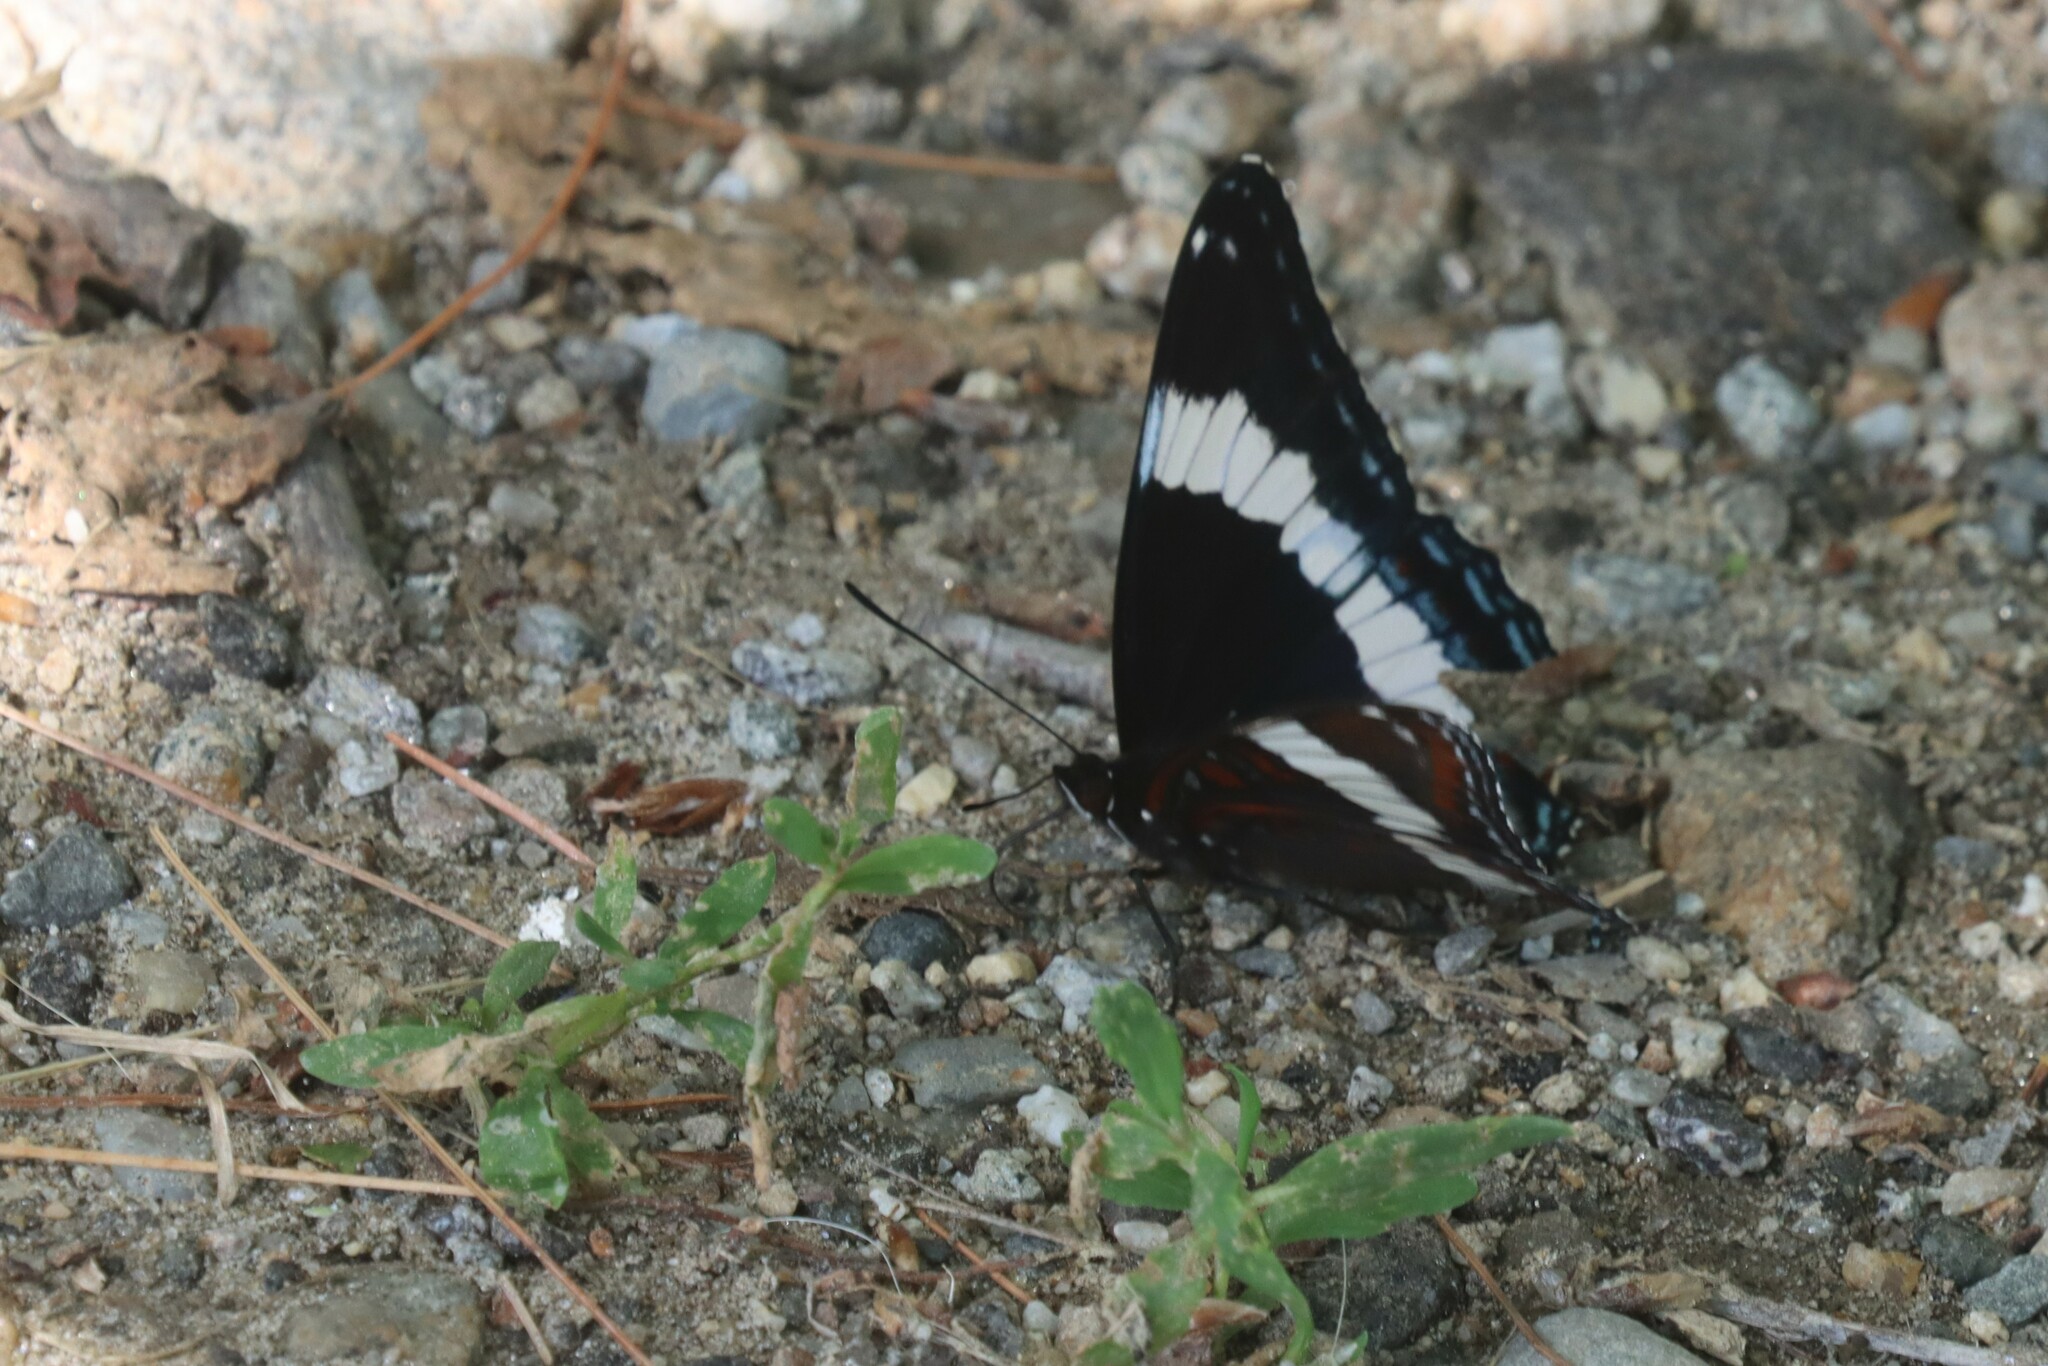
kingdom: Animalia
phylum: Arthropoda
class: Insecta
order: Lepidoptera
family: Nymphalidae
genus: Limenitis
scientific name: Limenitis arthemis
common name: Red-spotted admiral
